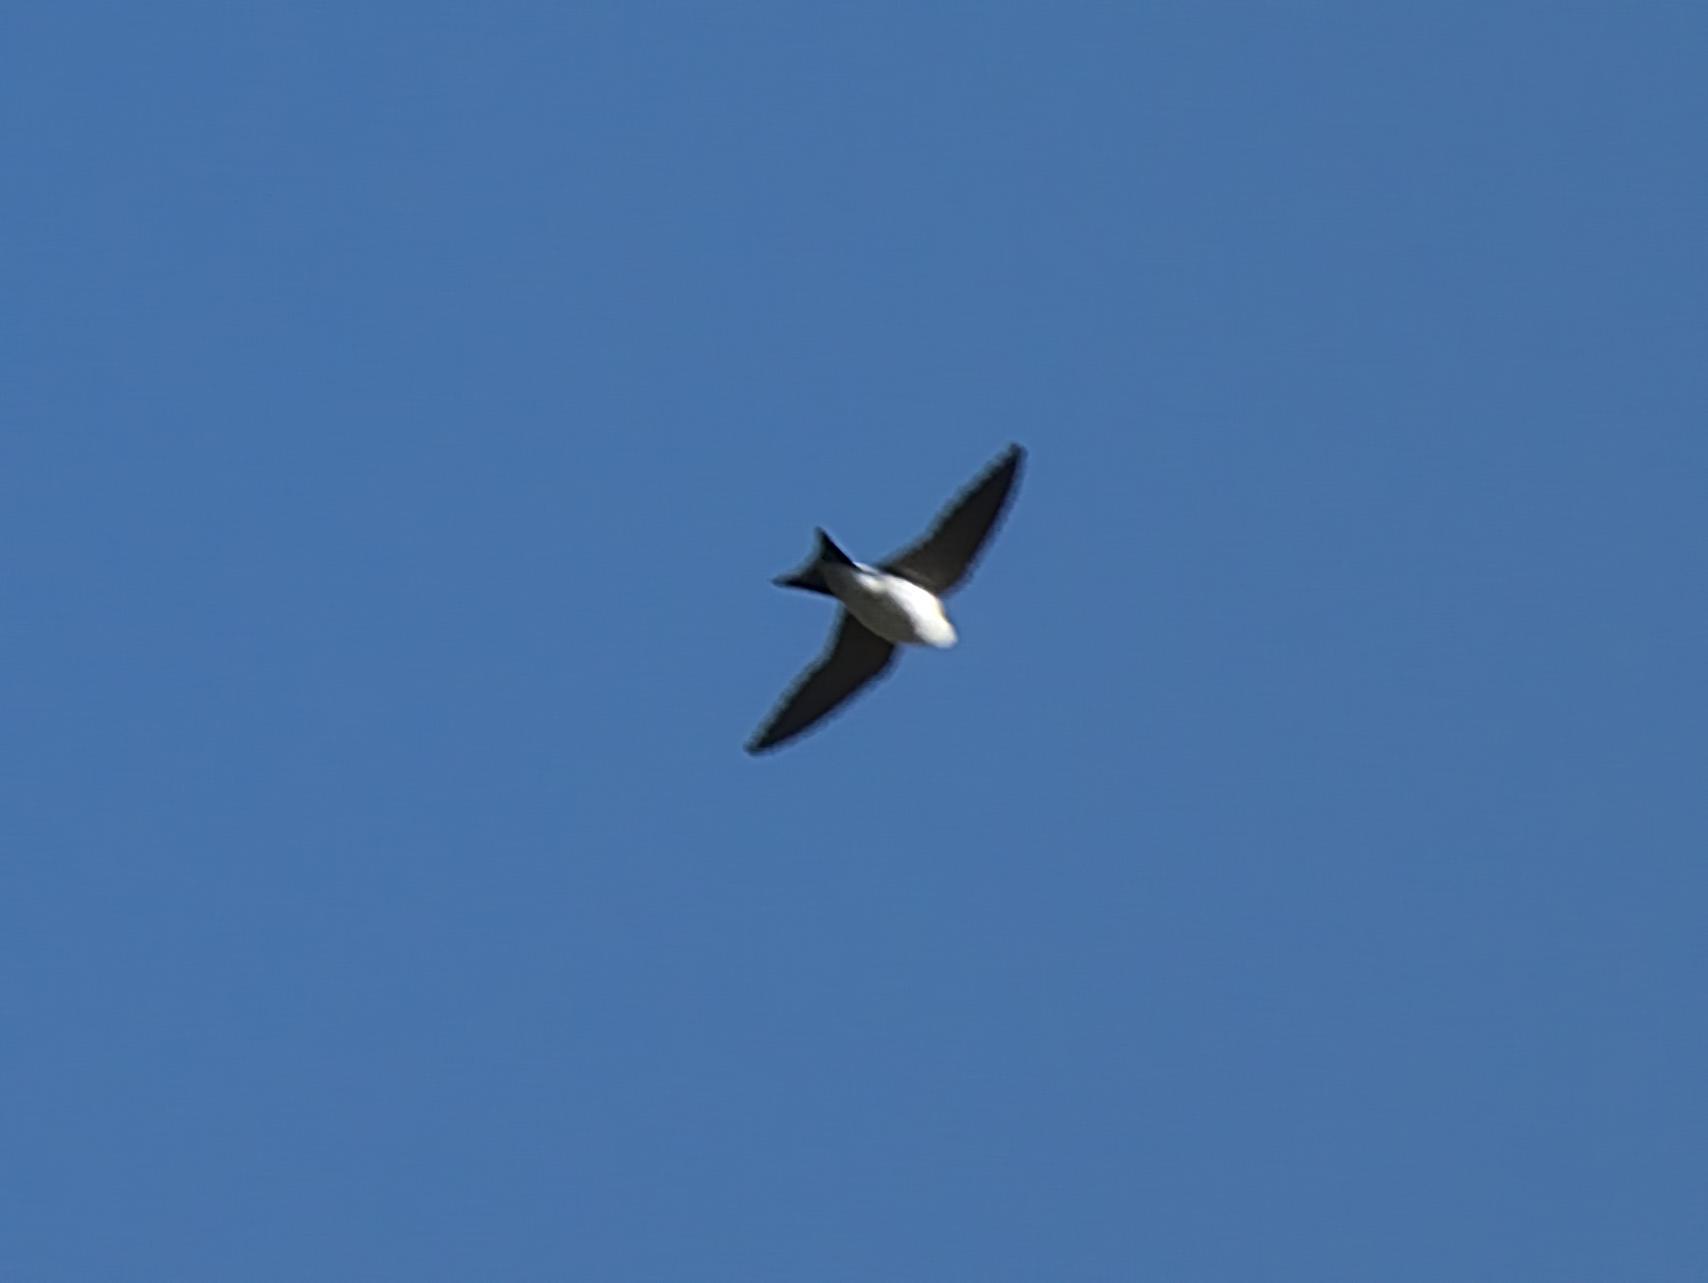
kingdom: Animalia
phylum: Chordata
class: Aves
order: Passeriformes
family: Hirundinidae
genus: Delichon
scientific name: Delichon urbicum
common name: Common house martin
